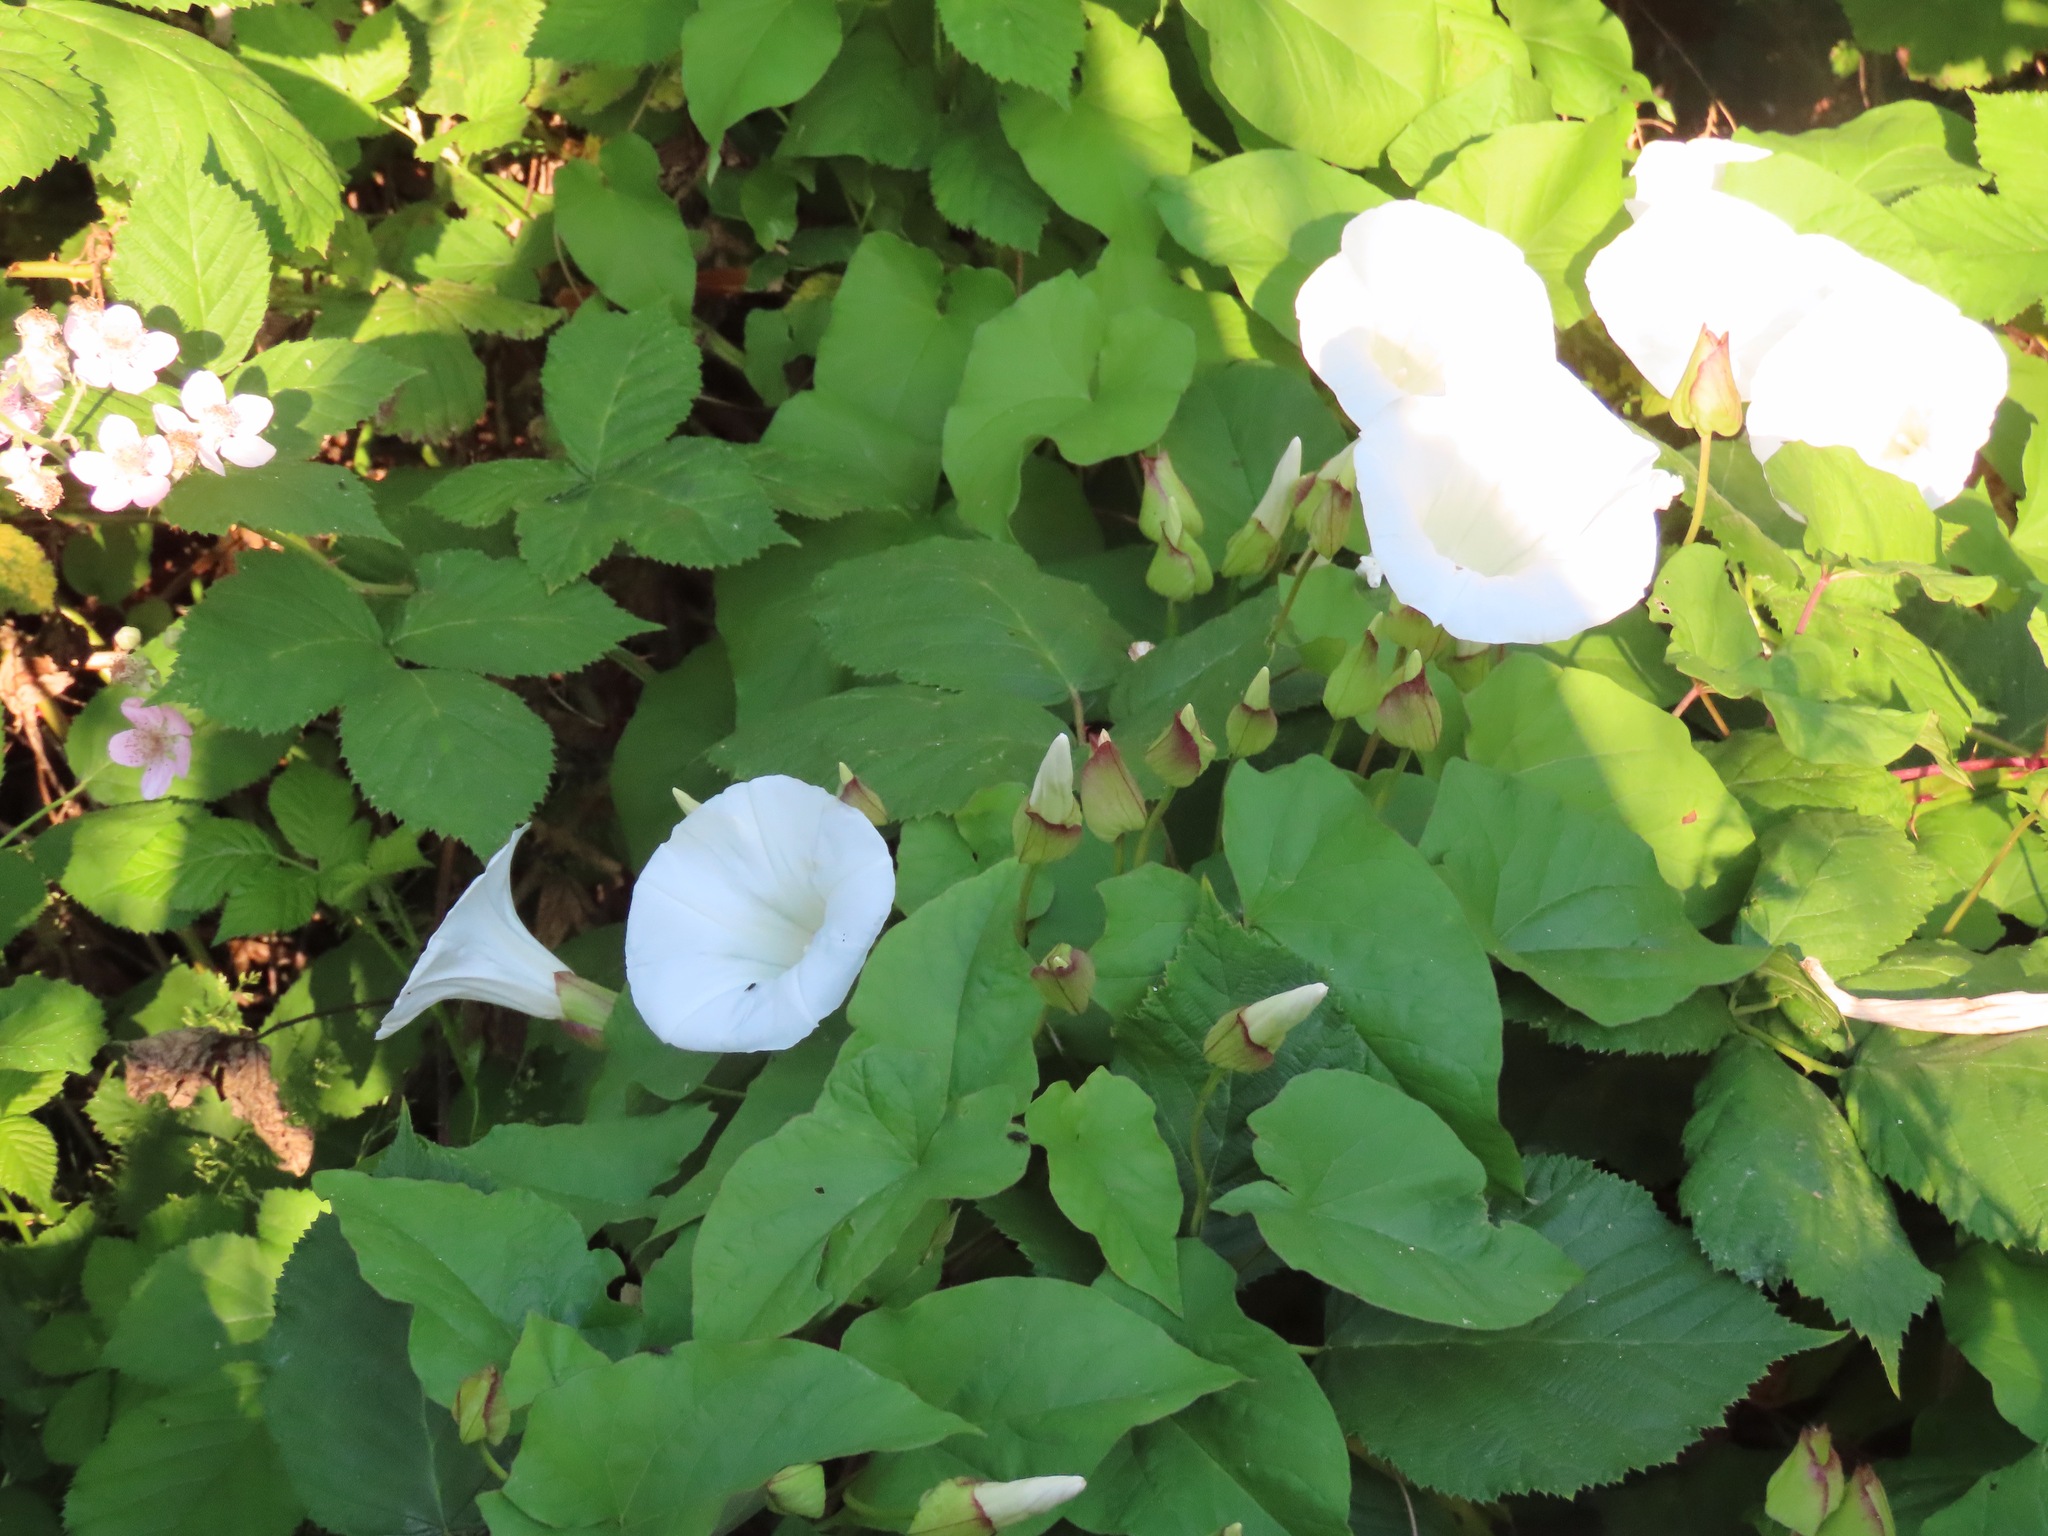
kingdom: Plantae
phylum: Tracheophyta
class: Magnoliopsida
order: Solanales
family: Convolvulaceae
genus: Calystegia
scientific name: Calystegia silvatica
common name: Large bindweed
